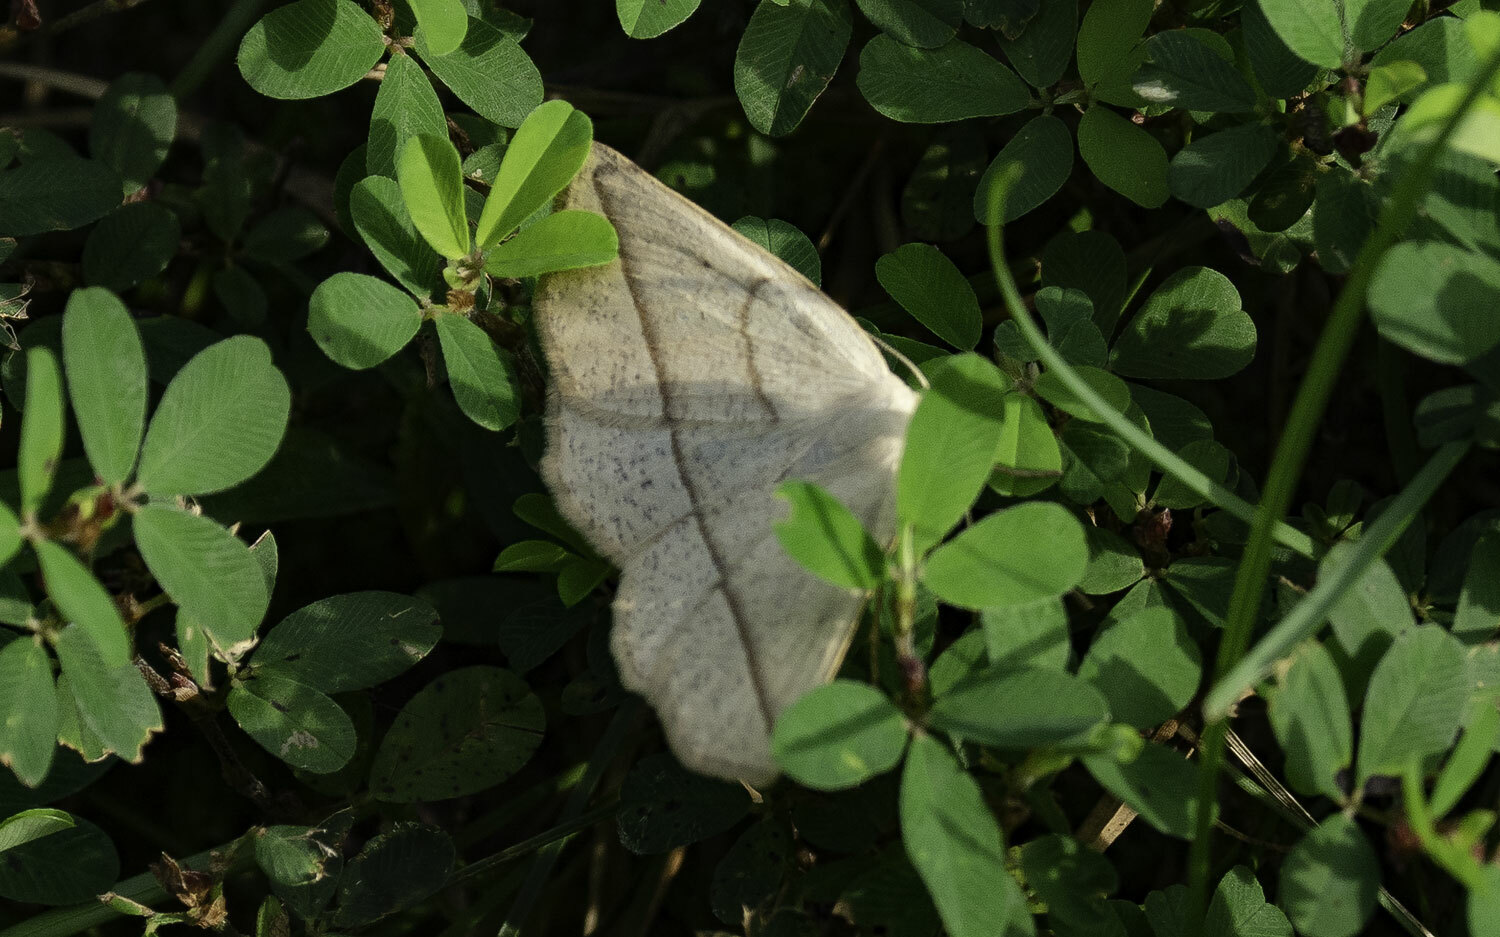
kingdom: Animalia
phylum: Arthropoda
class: Insecta
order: Lepidoptera
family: Geometridae
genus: Eusarca
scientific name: Eusarca confusaria
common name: Confused eusarca
